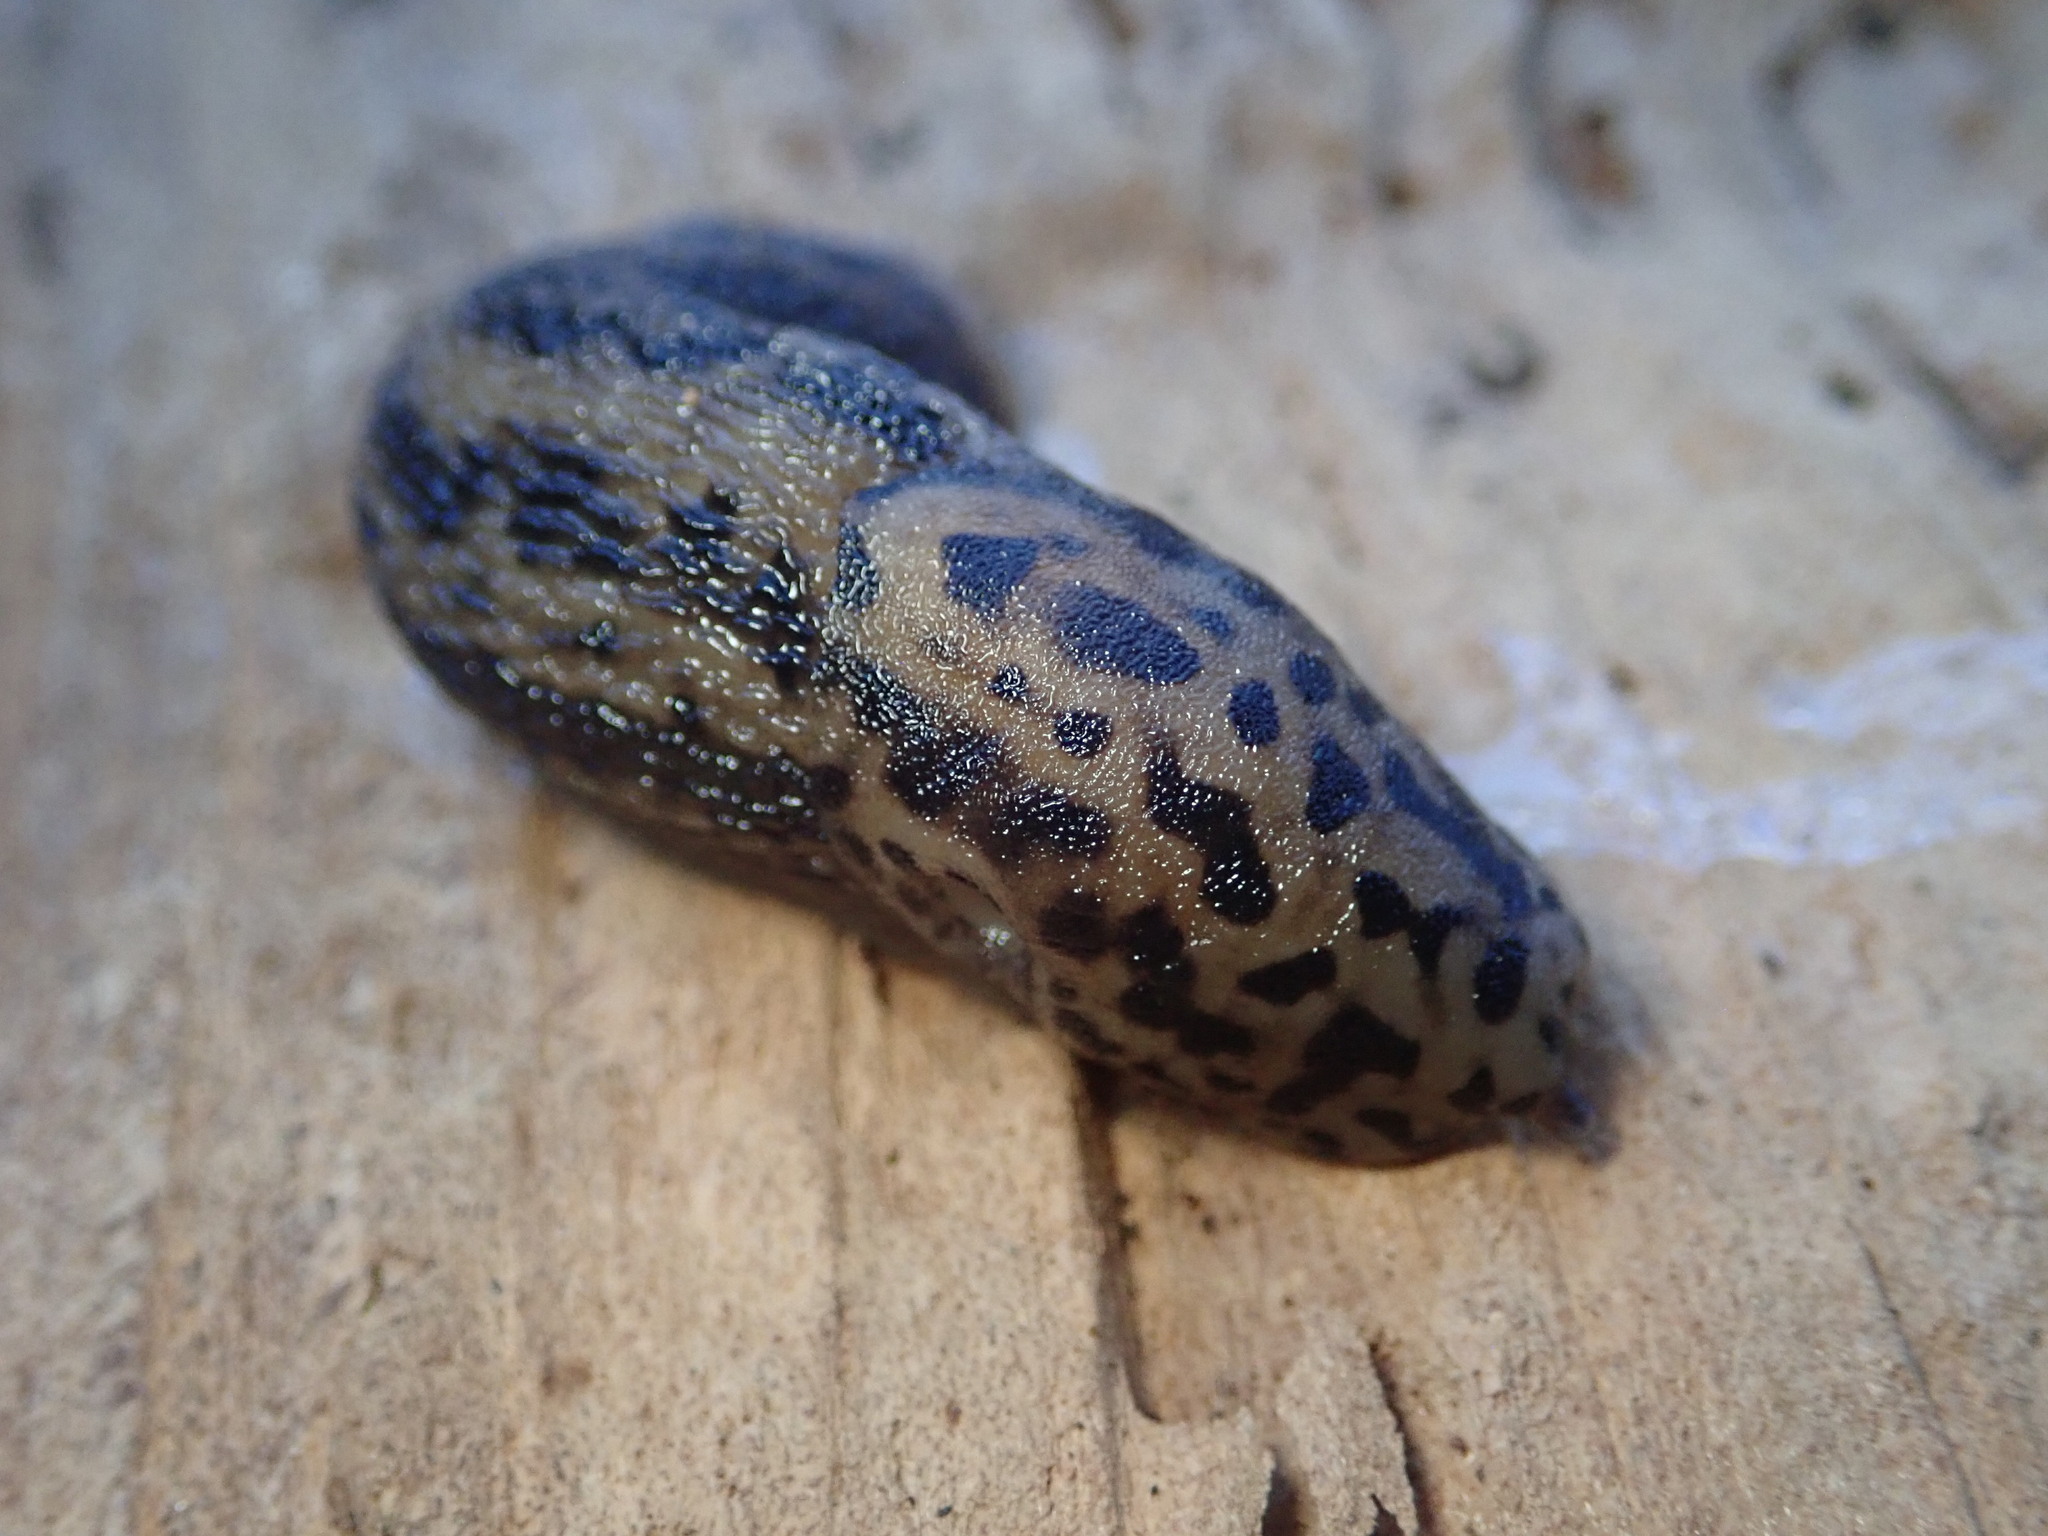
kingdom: Animalia
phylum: Mollusca
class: Gastropoda
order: Stylommatophora
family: Limacidae
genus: Limax
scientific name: Limax maximus
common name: Great grey slug
